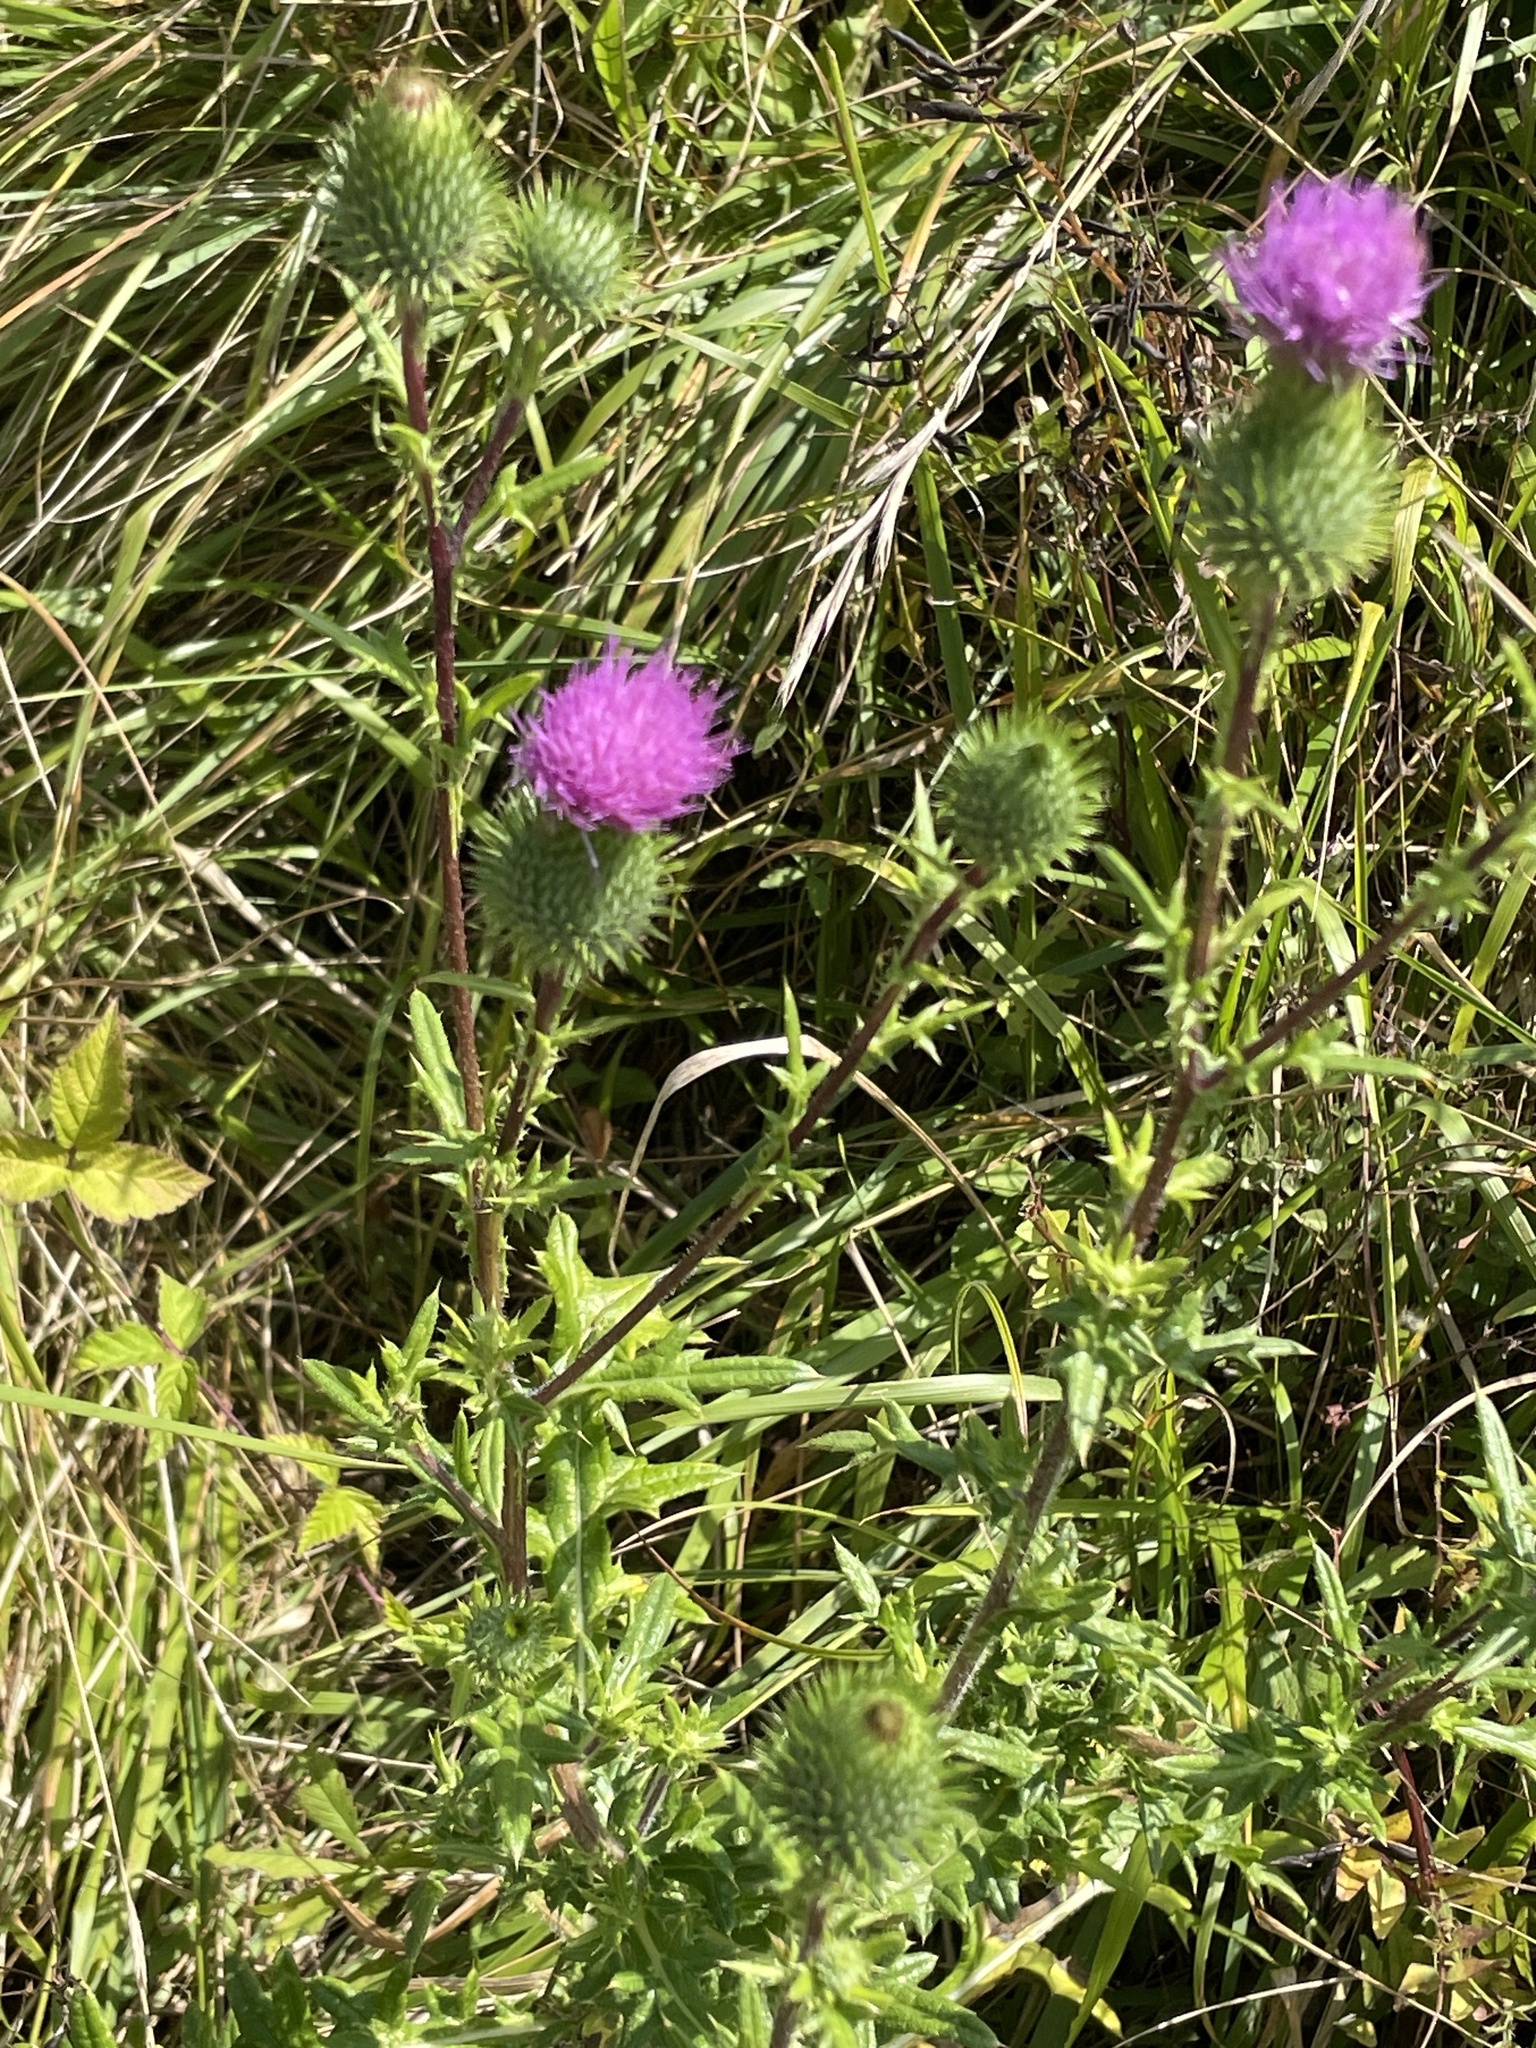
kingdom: Plantae
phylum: Tracheophyta
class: Magnoliopsida
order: Asterales
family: Asteraceae
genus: Cirsium
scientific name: Cirsium vulgare
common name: Bull thistle
